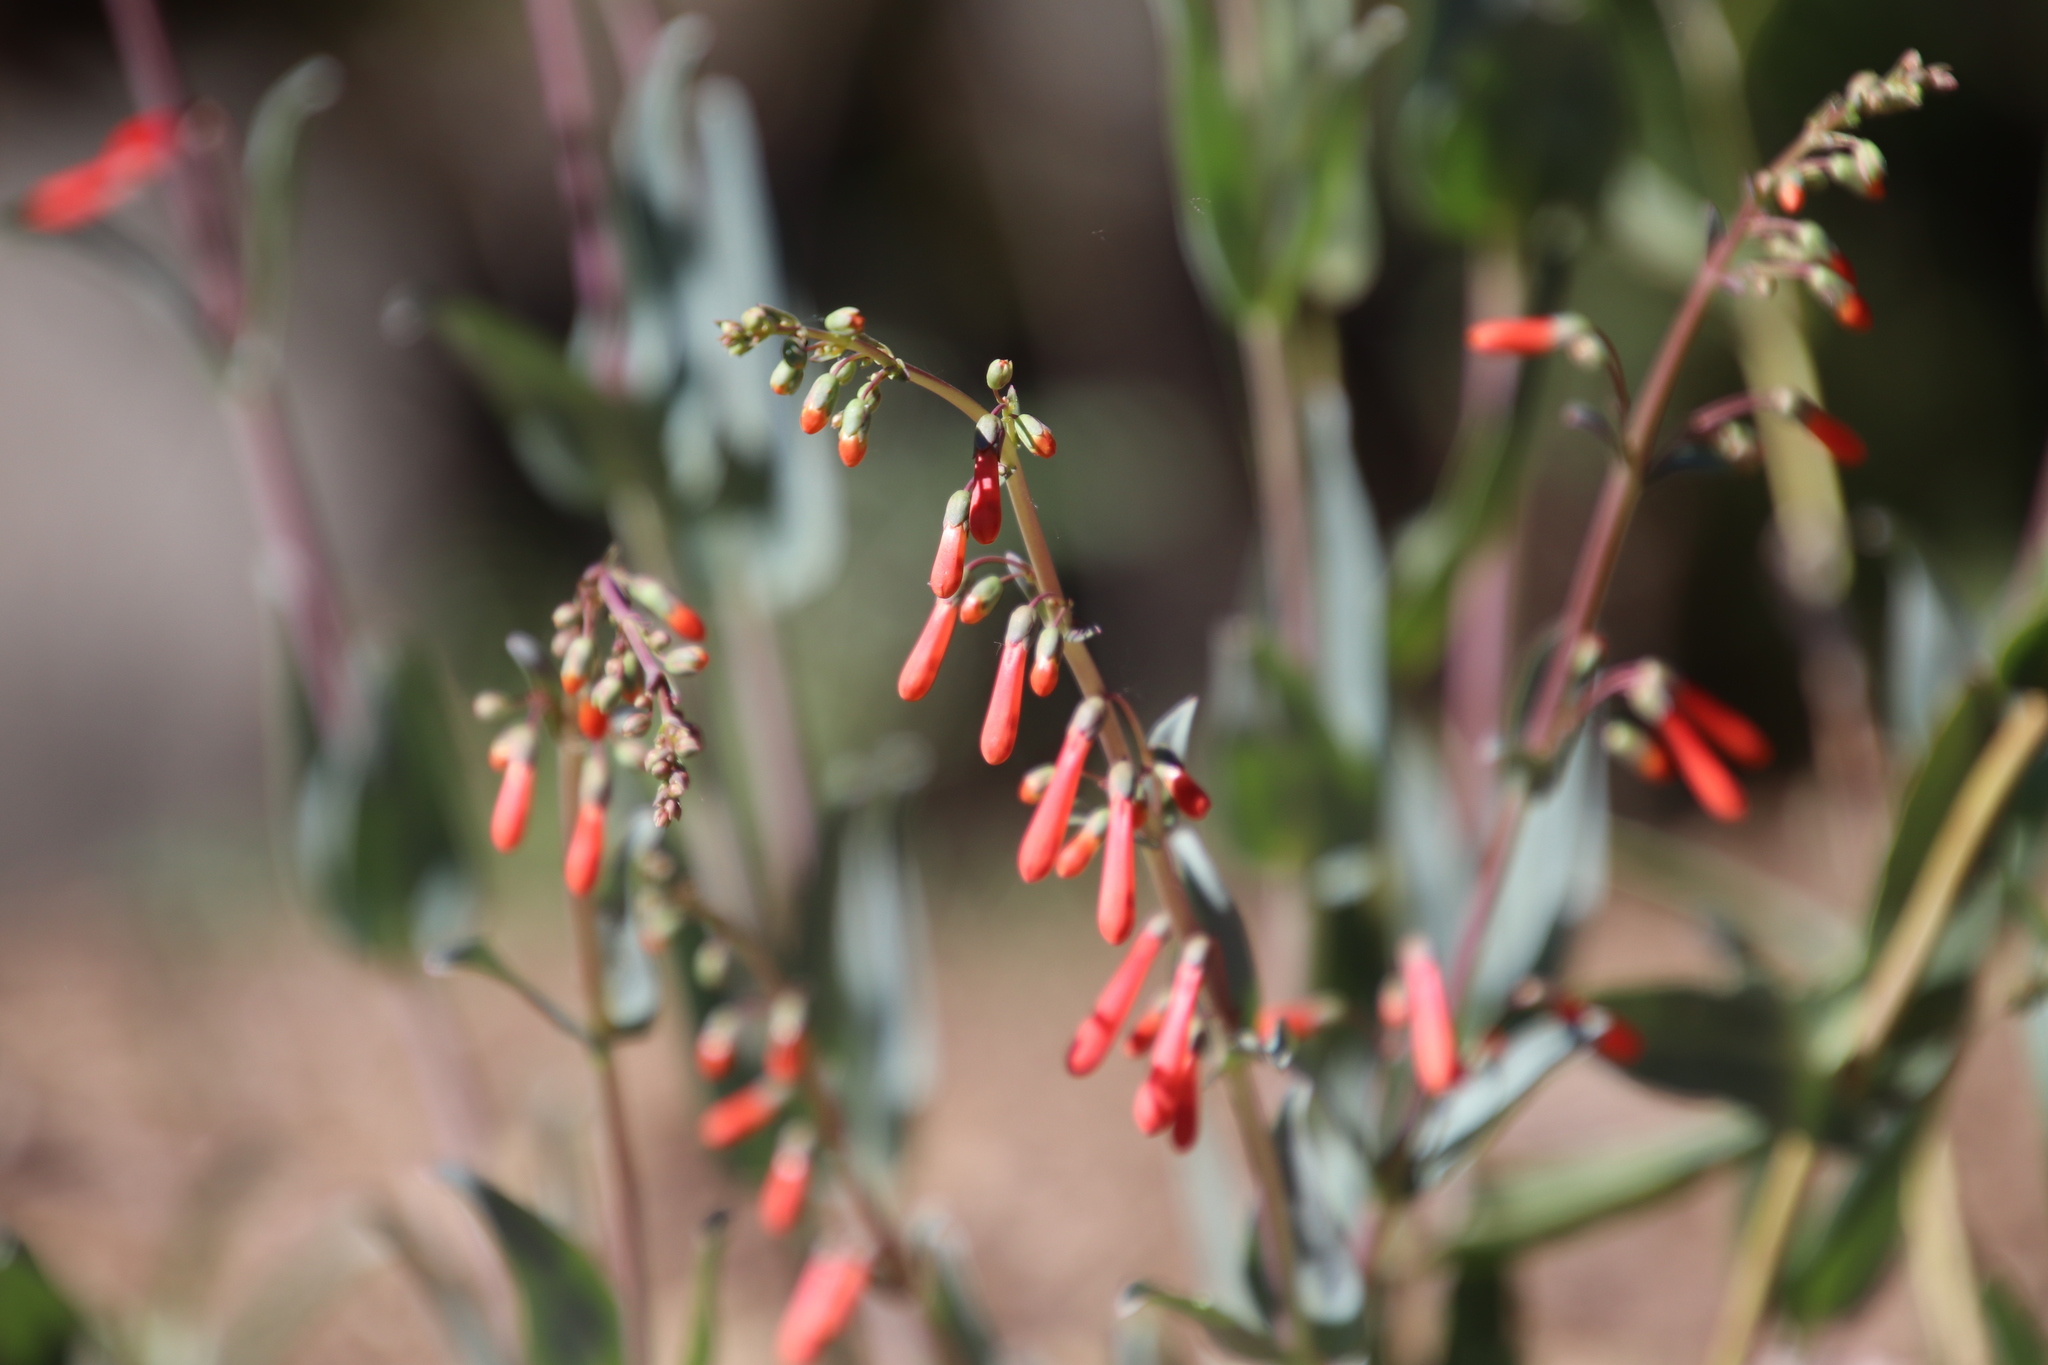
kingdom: Plantae
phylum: Tracheophyta
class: Magnoliopsida
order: Lamiales
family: Plantaginaceae
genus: Penstemon
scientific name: Penstemon centranthifolius
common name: Scarlet bugler
